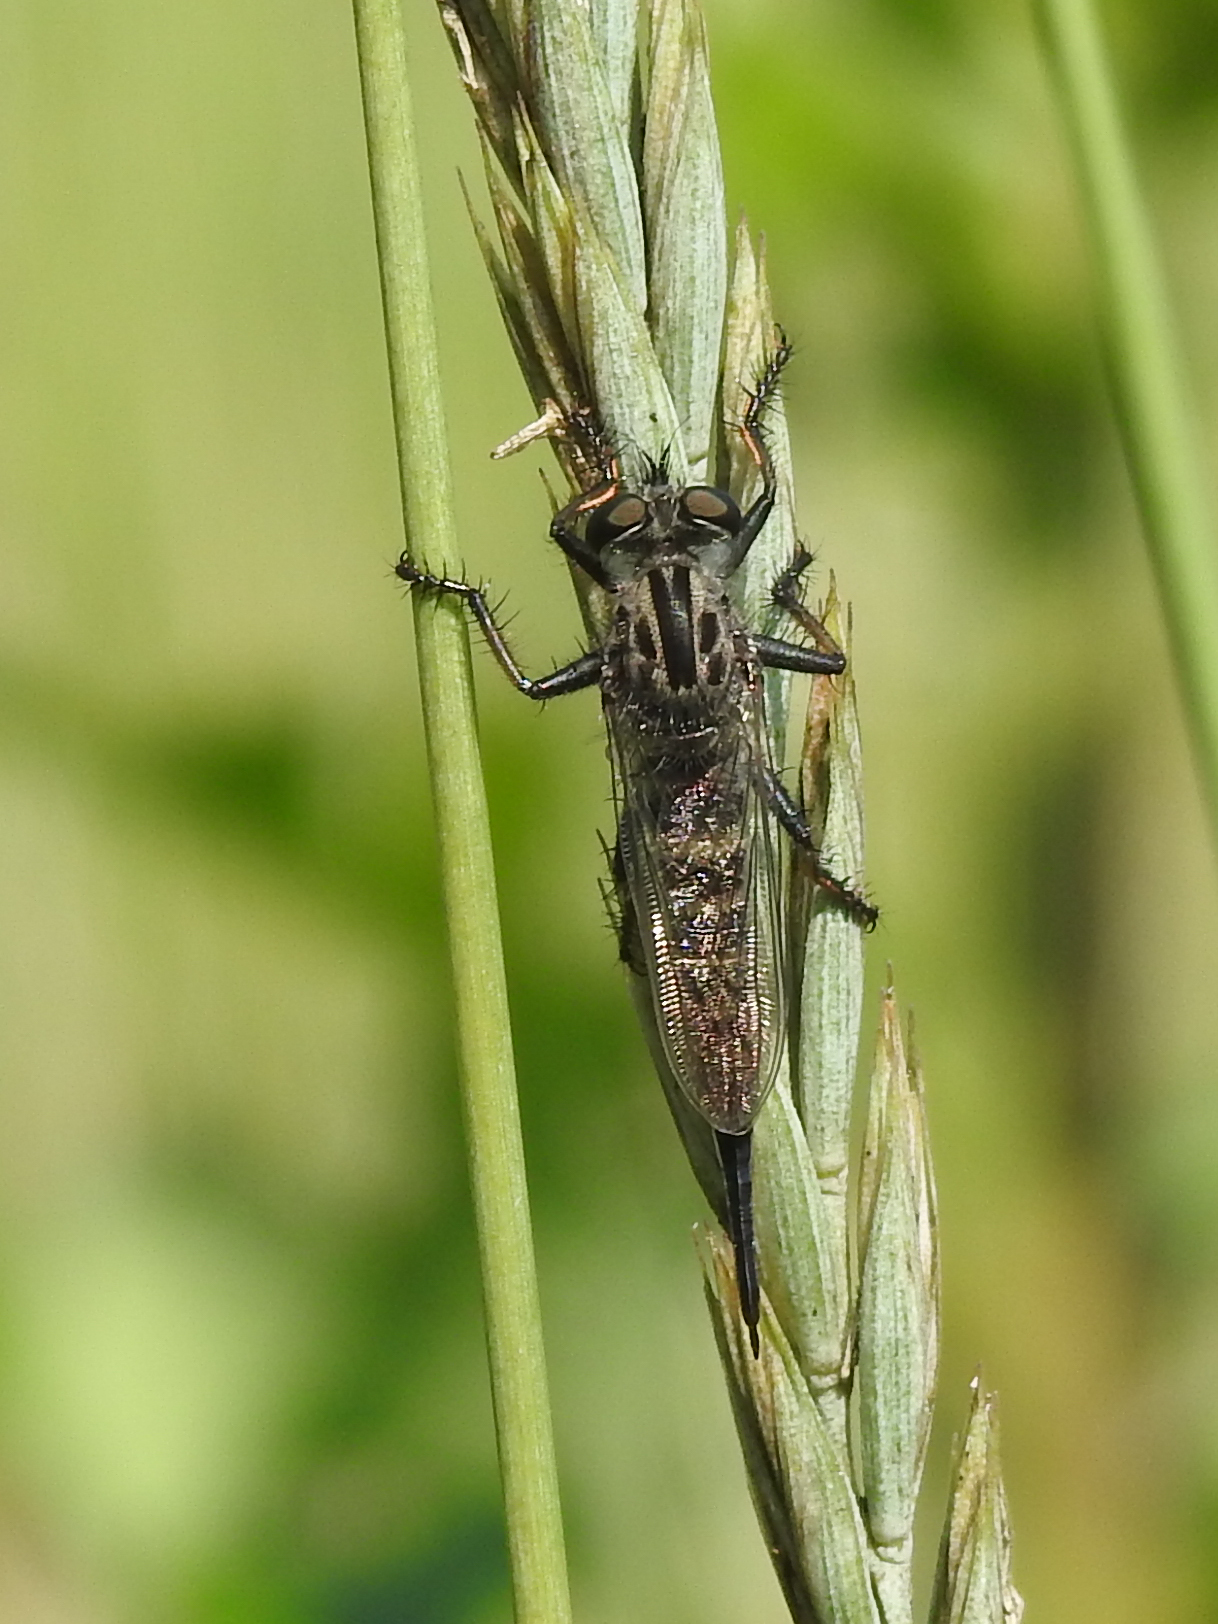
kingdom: Animalia
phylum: Arthropoda
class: Insecta
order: Diptera
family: Asilidae
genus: Efferia
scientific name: Efferia aestuans
